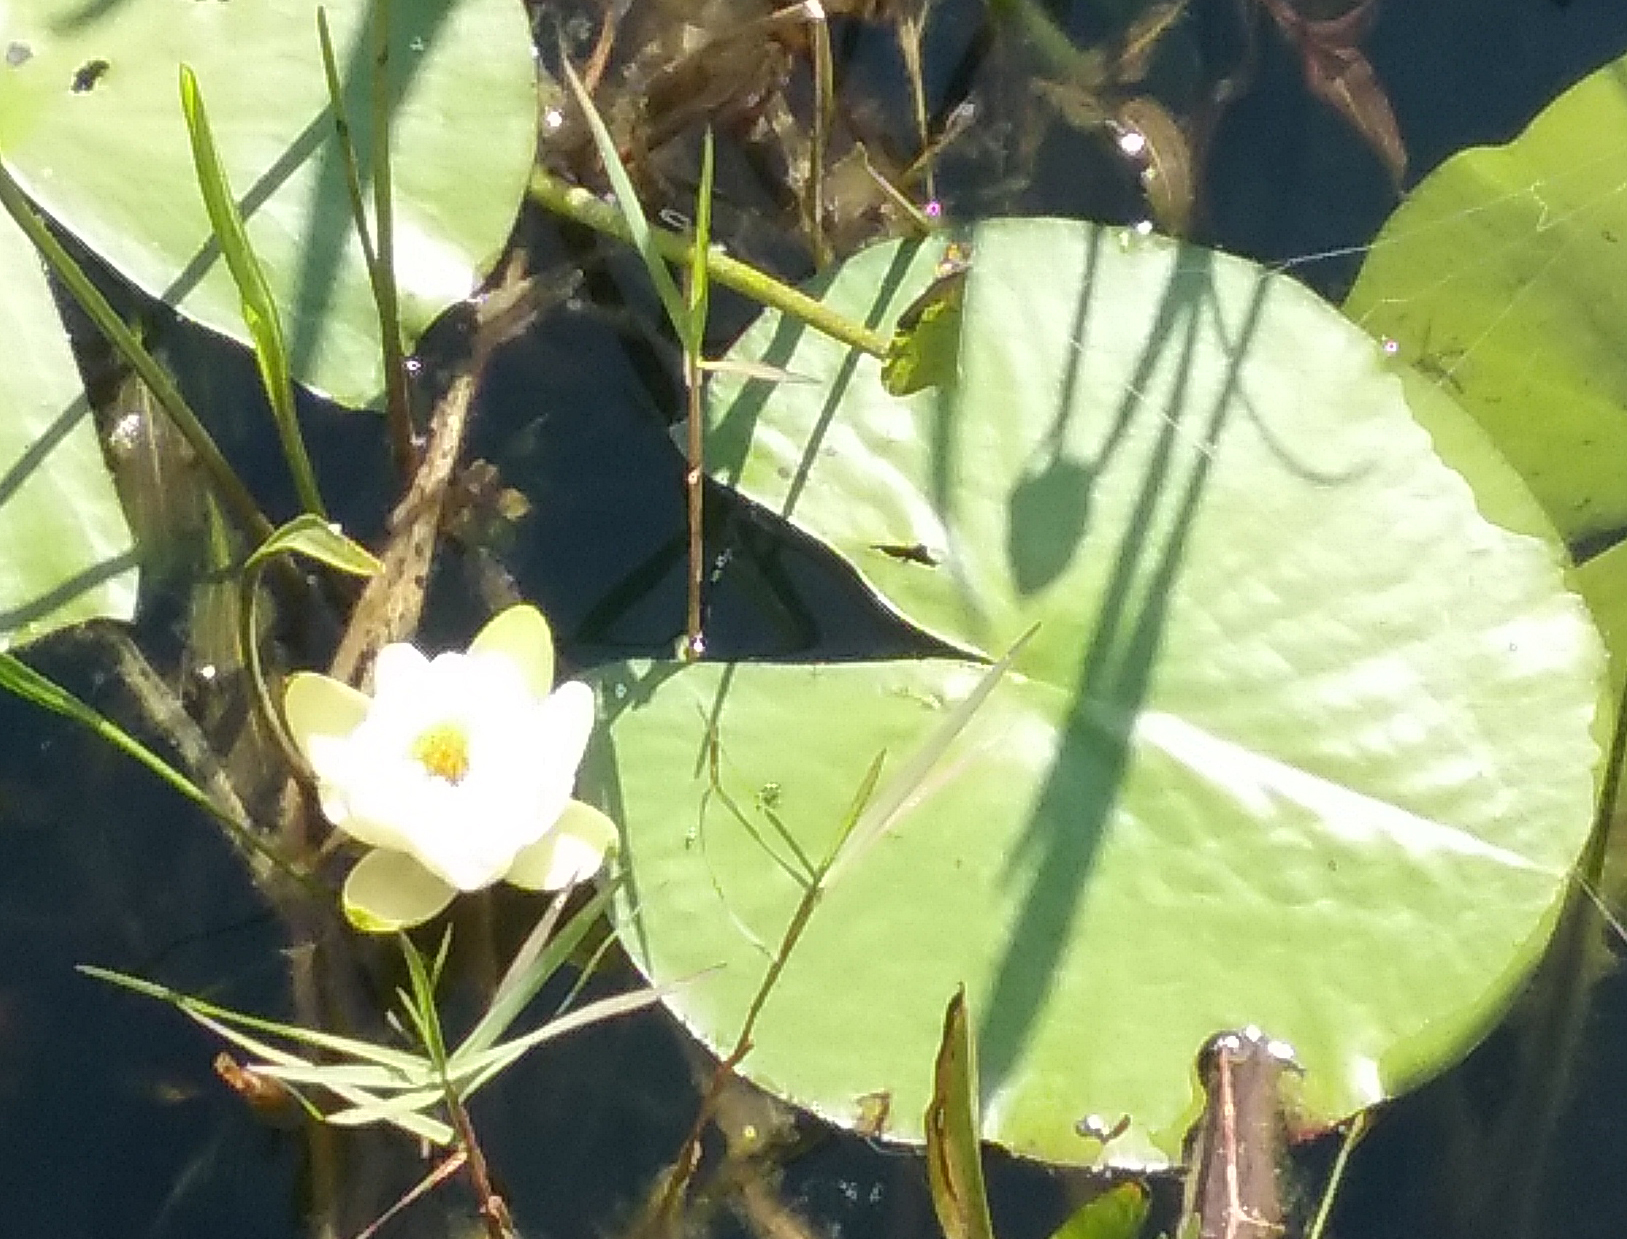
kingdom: Plantae
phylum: Tracheophyta
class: Magnoliopsida
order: Nymphaeales
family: Nymphaeaceae
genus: Nymphaea
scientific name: Nymphaea odorata
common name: Fragrant water-lily
